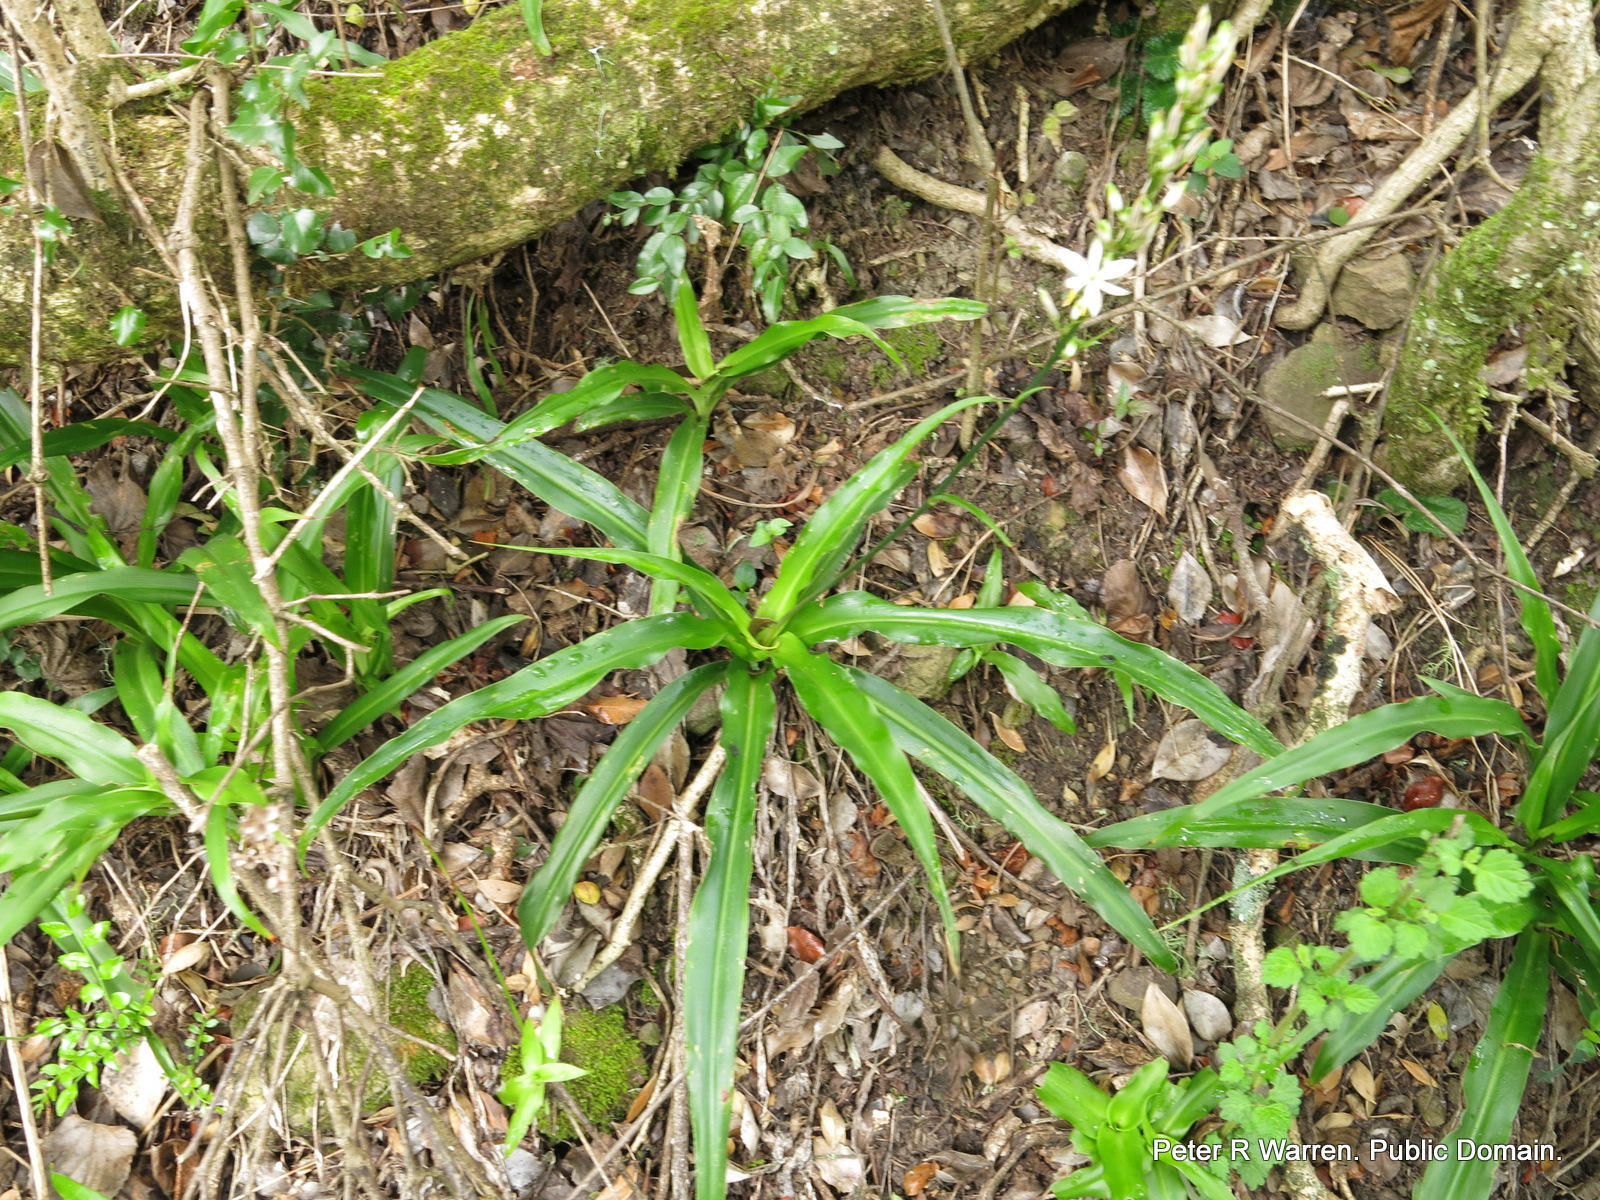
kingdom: Plantae
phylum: Tracheophyta
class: Liliopsida
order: Asparagales
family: Asparagaceae
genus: Chlorophytum
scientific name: Chlorophytum comosum
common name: Spider plant
